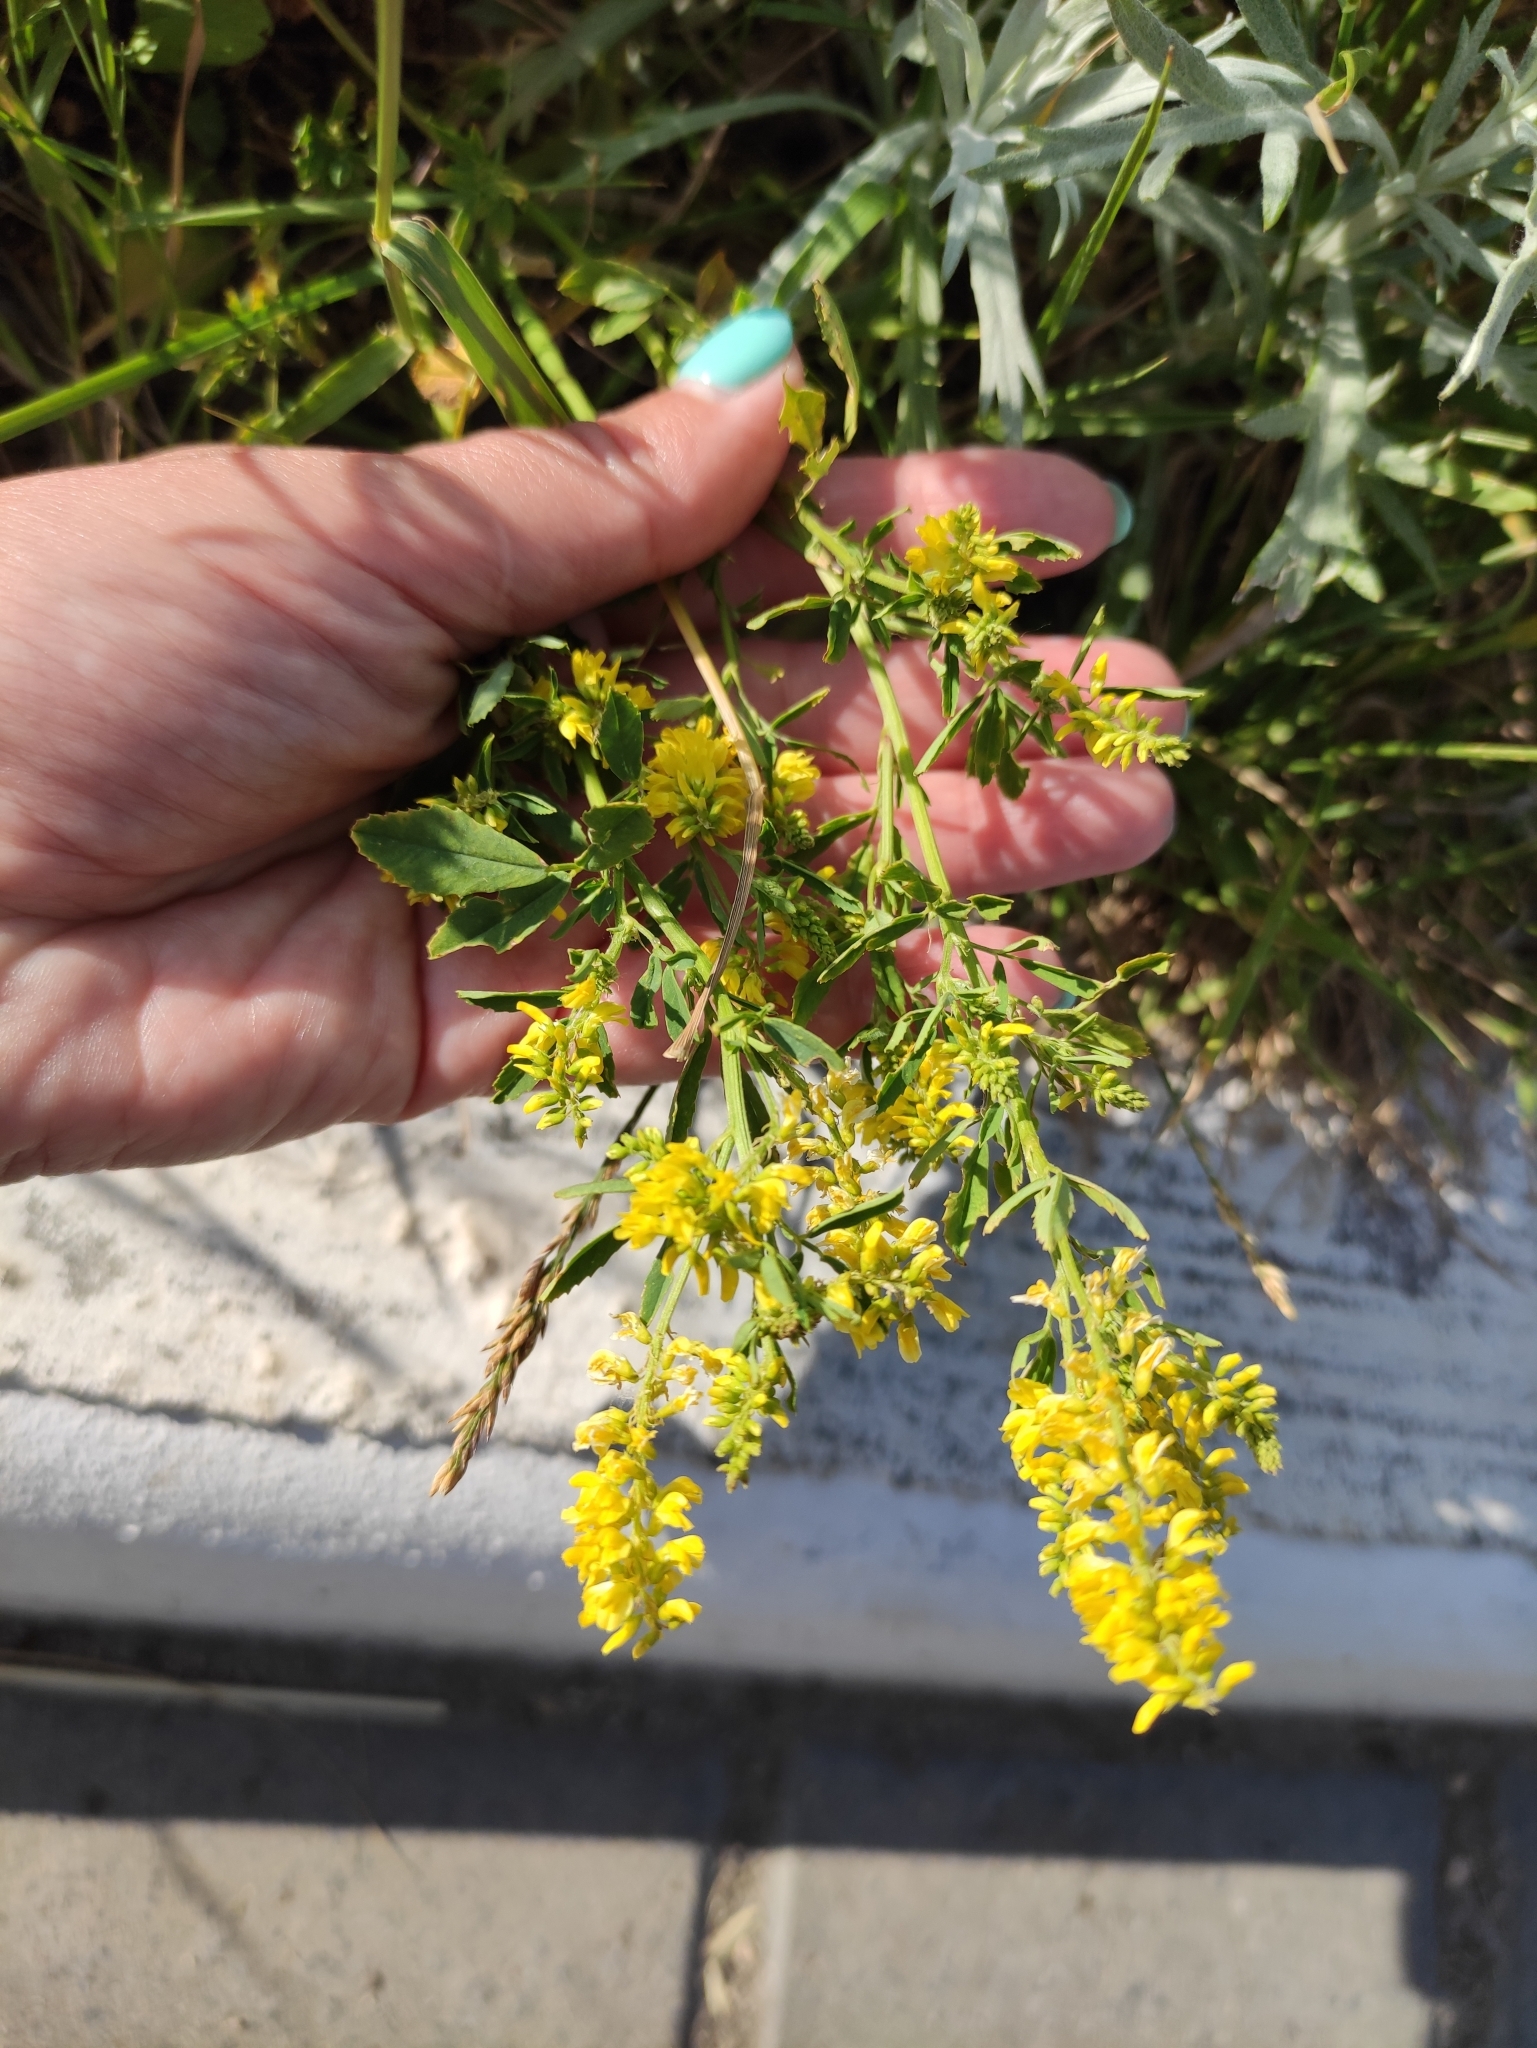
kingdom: Plantae
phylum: Tracheophyta
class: Magnoliopsida
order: Fabales
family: Fabaceae
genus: Melilotus
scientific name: Melilotus officinalis
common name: Sweetclover
